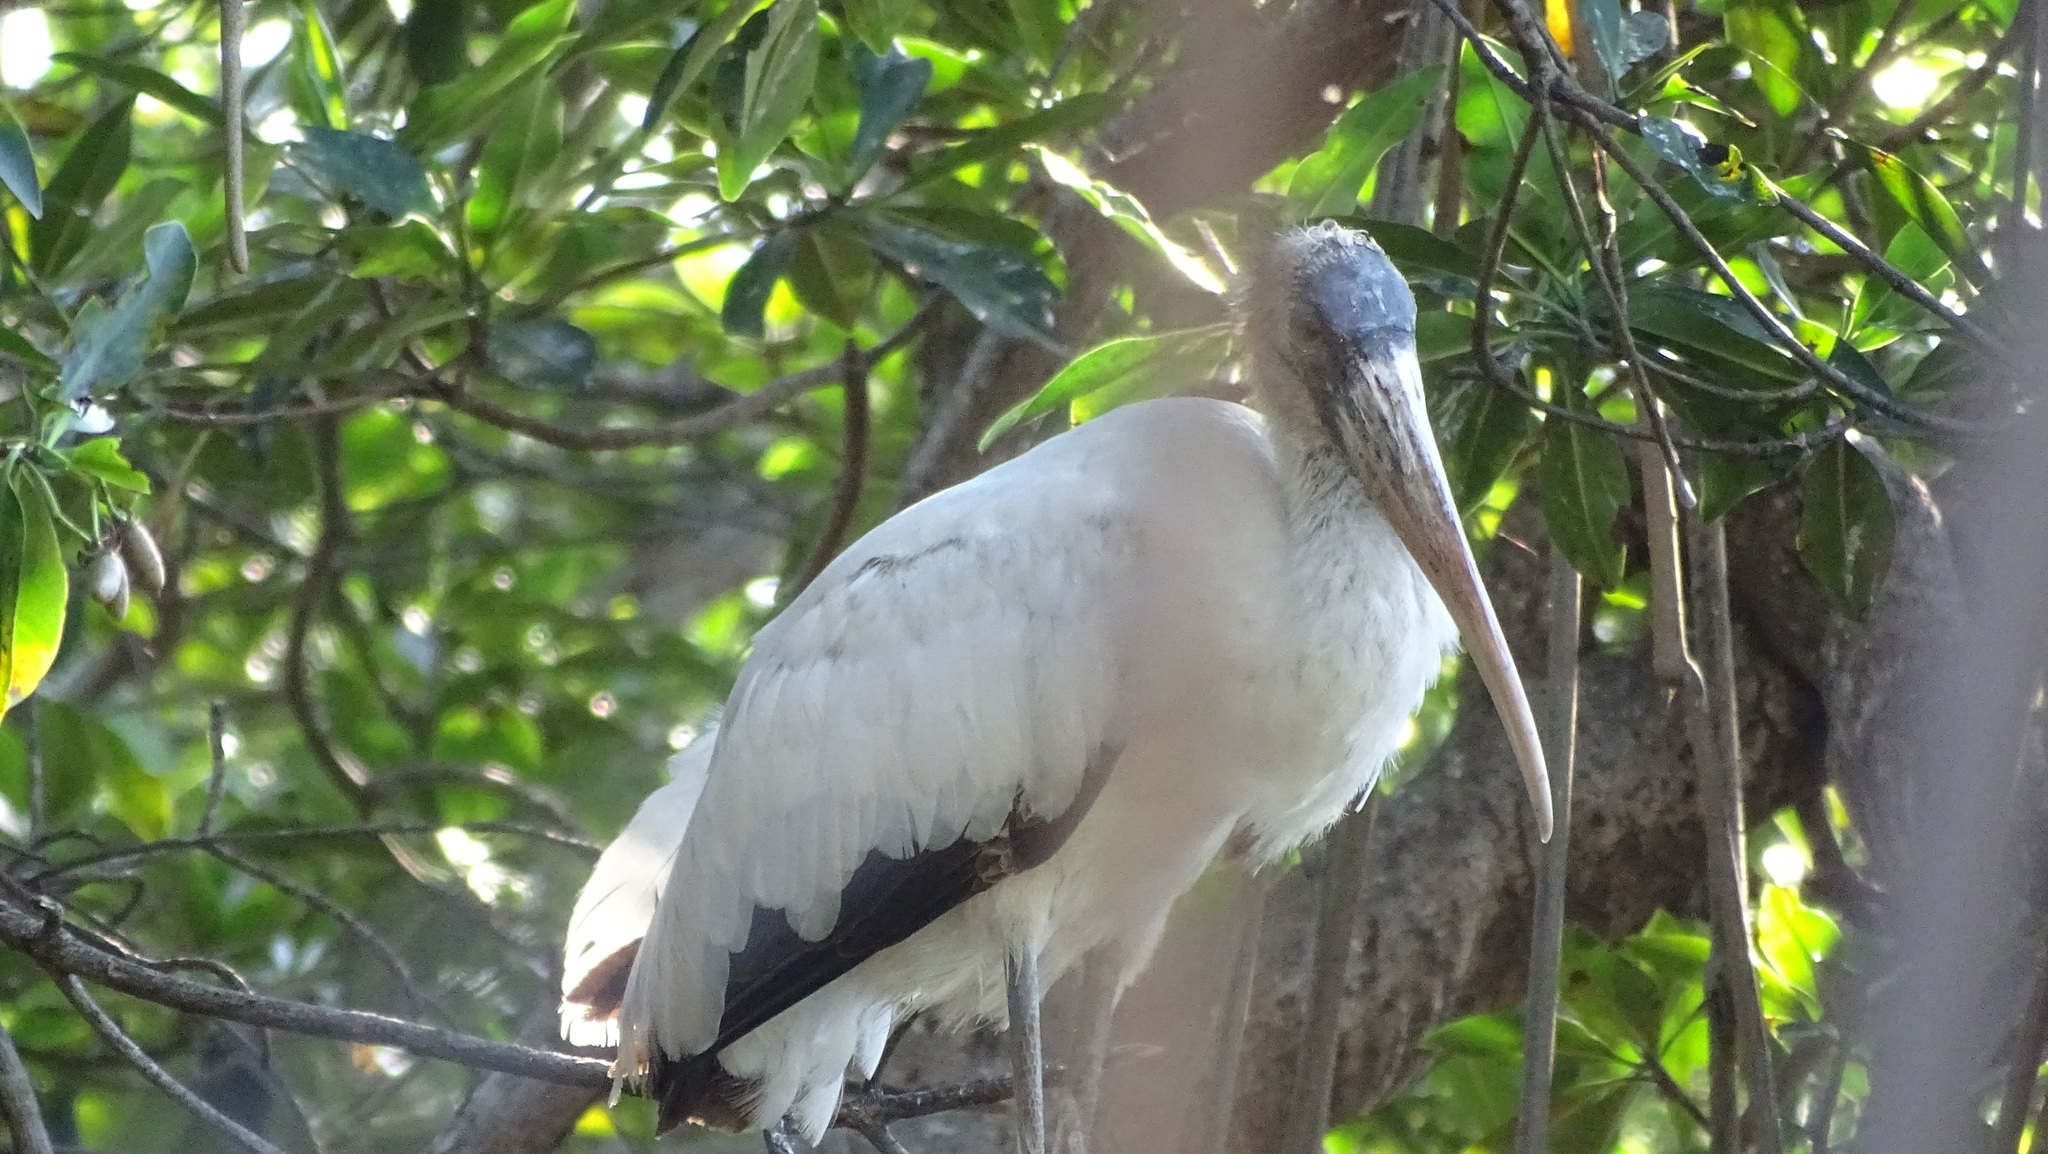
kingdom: Animalia
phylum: Chordata
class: Aves
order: Ciconiiformes
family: Ciconiidae
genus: Mycteria
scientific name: Mycteria americana
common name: Wood stork
